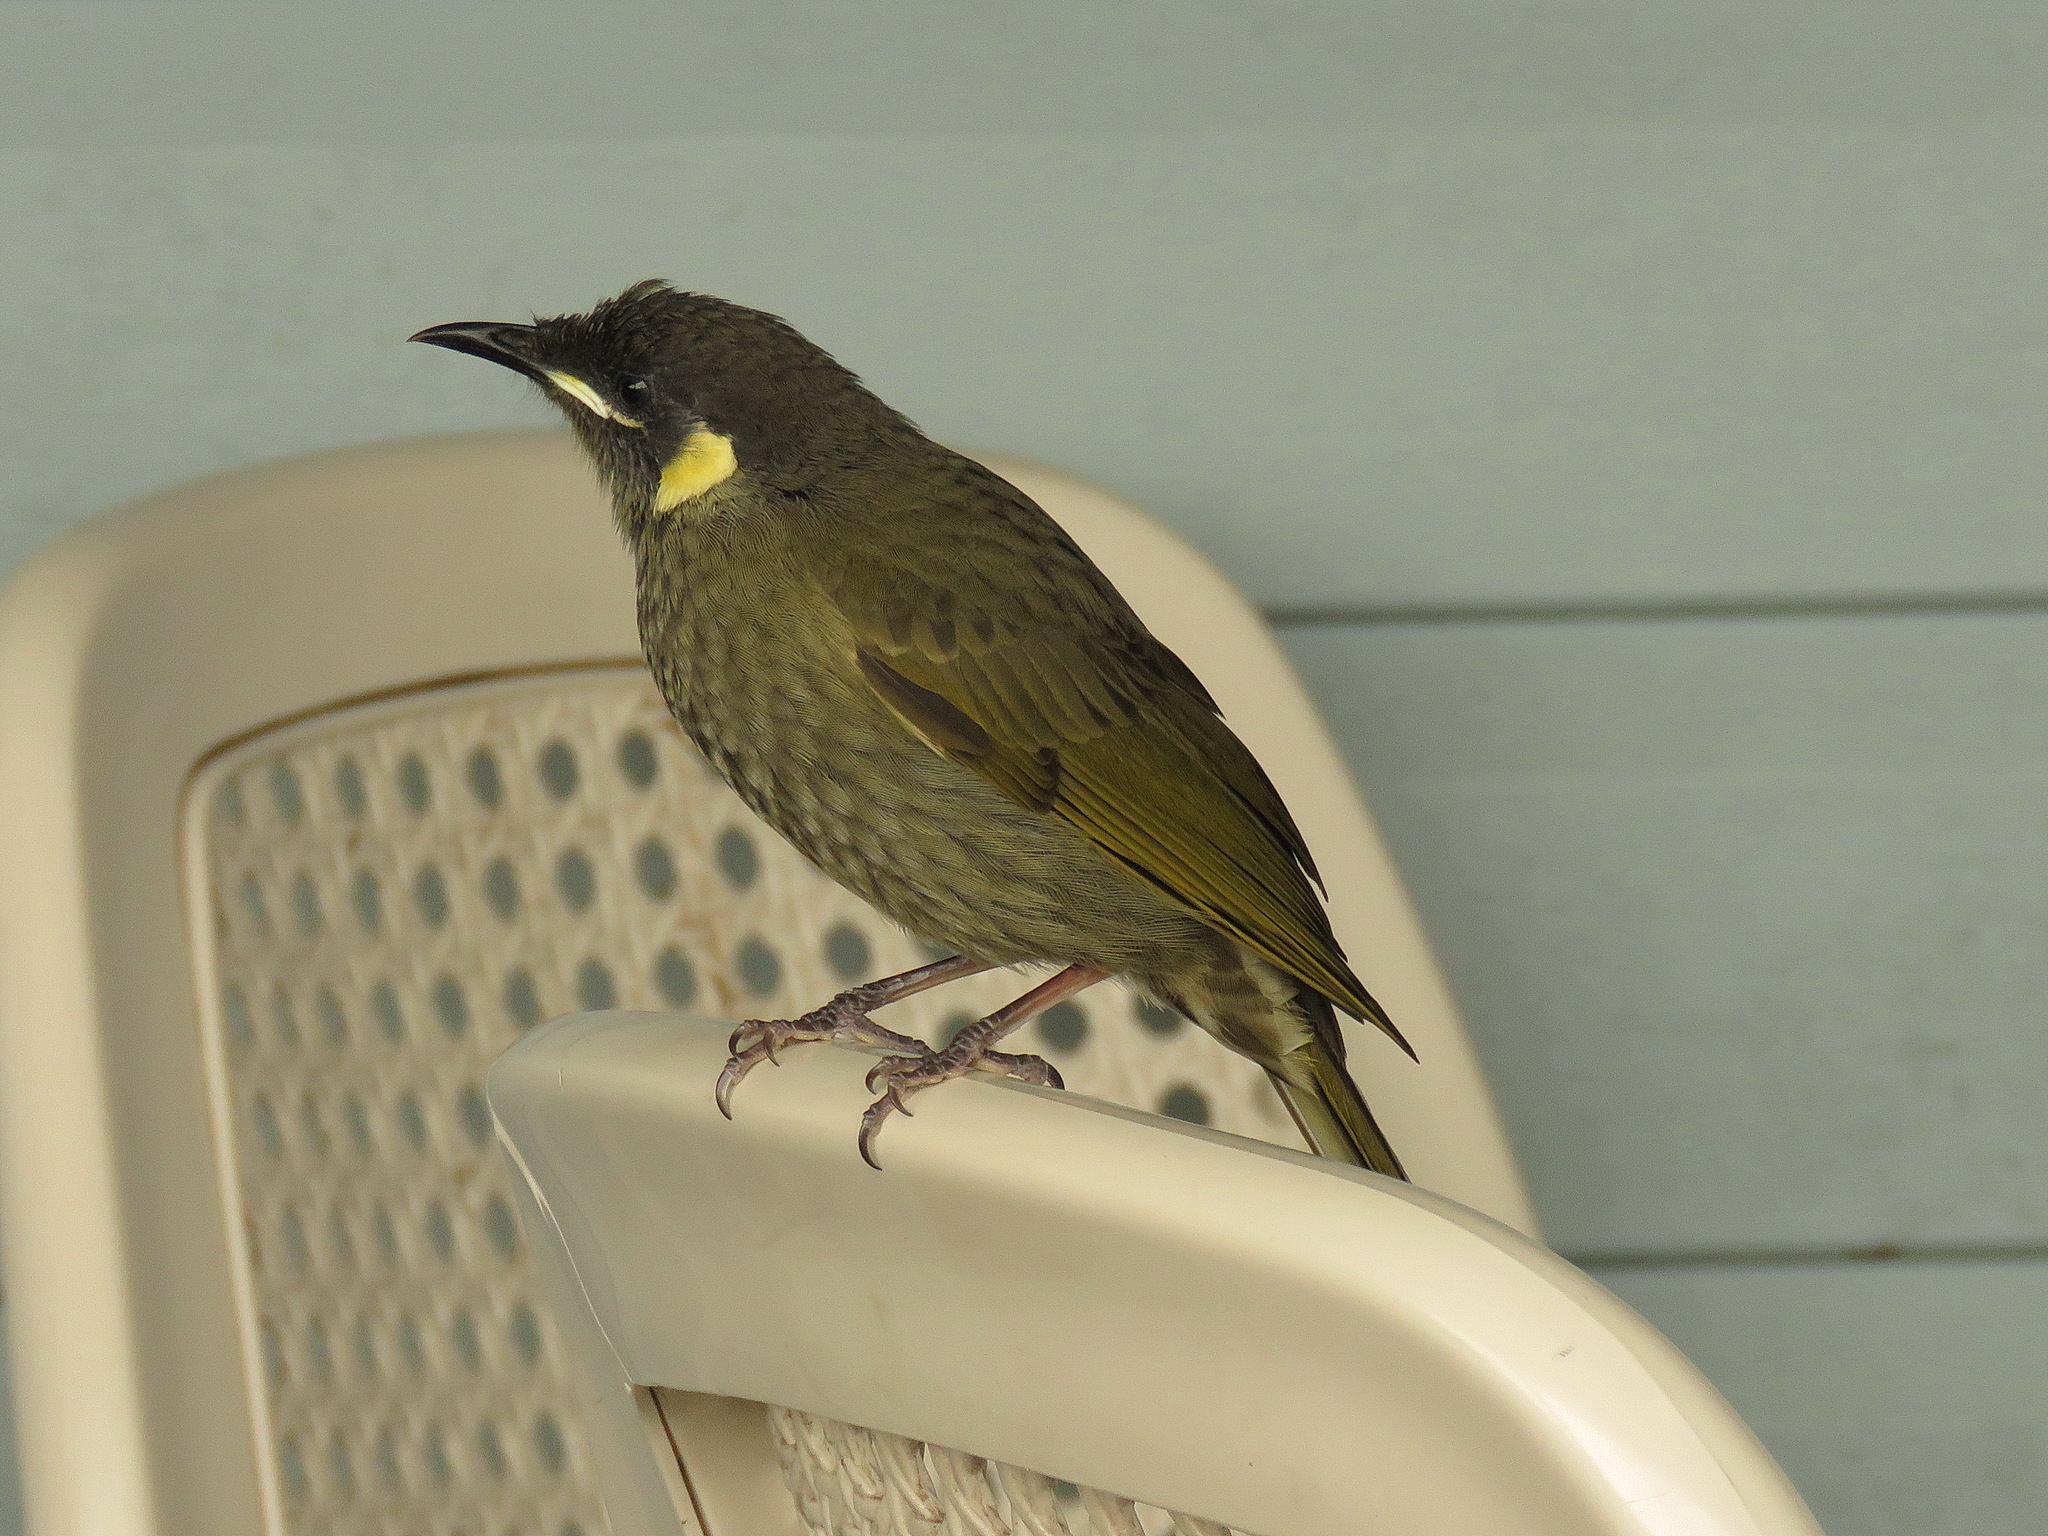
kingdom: Animalia
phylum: Chordata
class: Aves
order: Passeriformes
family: Meliphagidae
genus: Meliphaga
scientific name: Meliphaga lewinii
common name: Lewin's honeyeater
